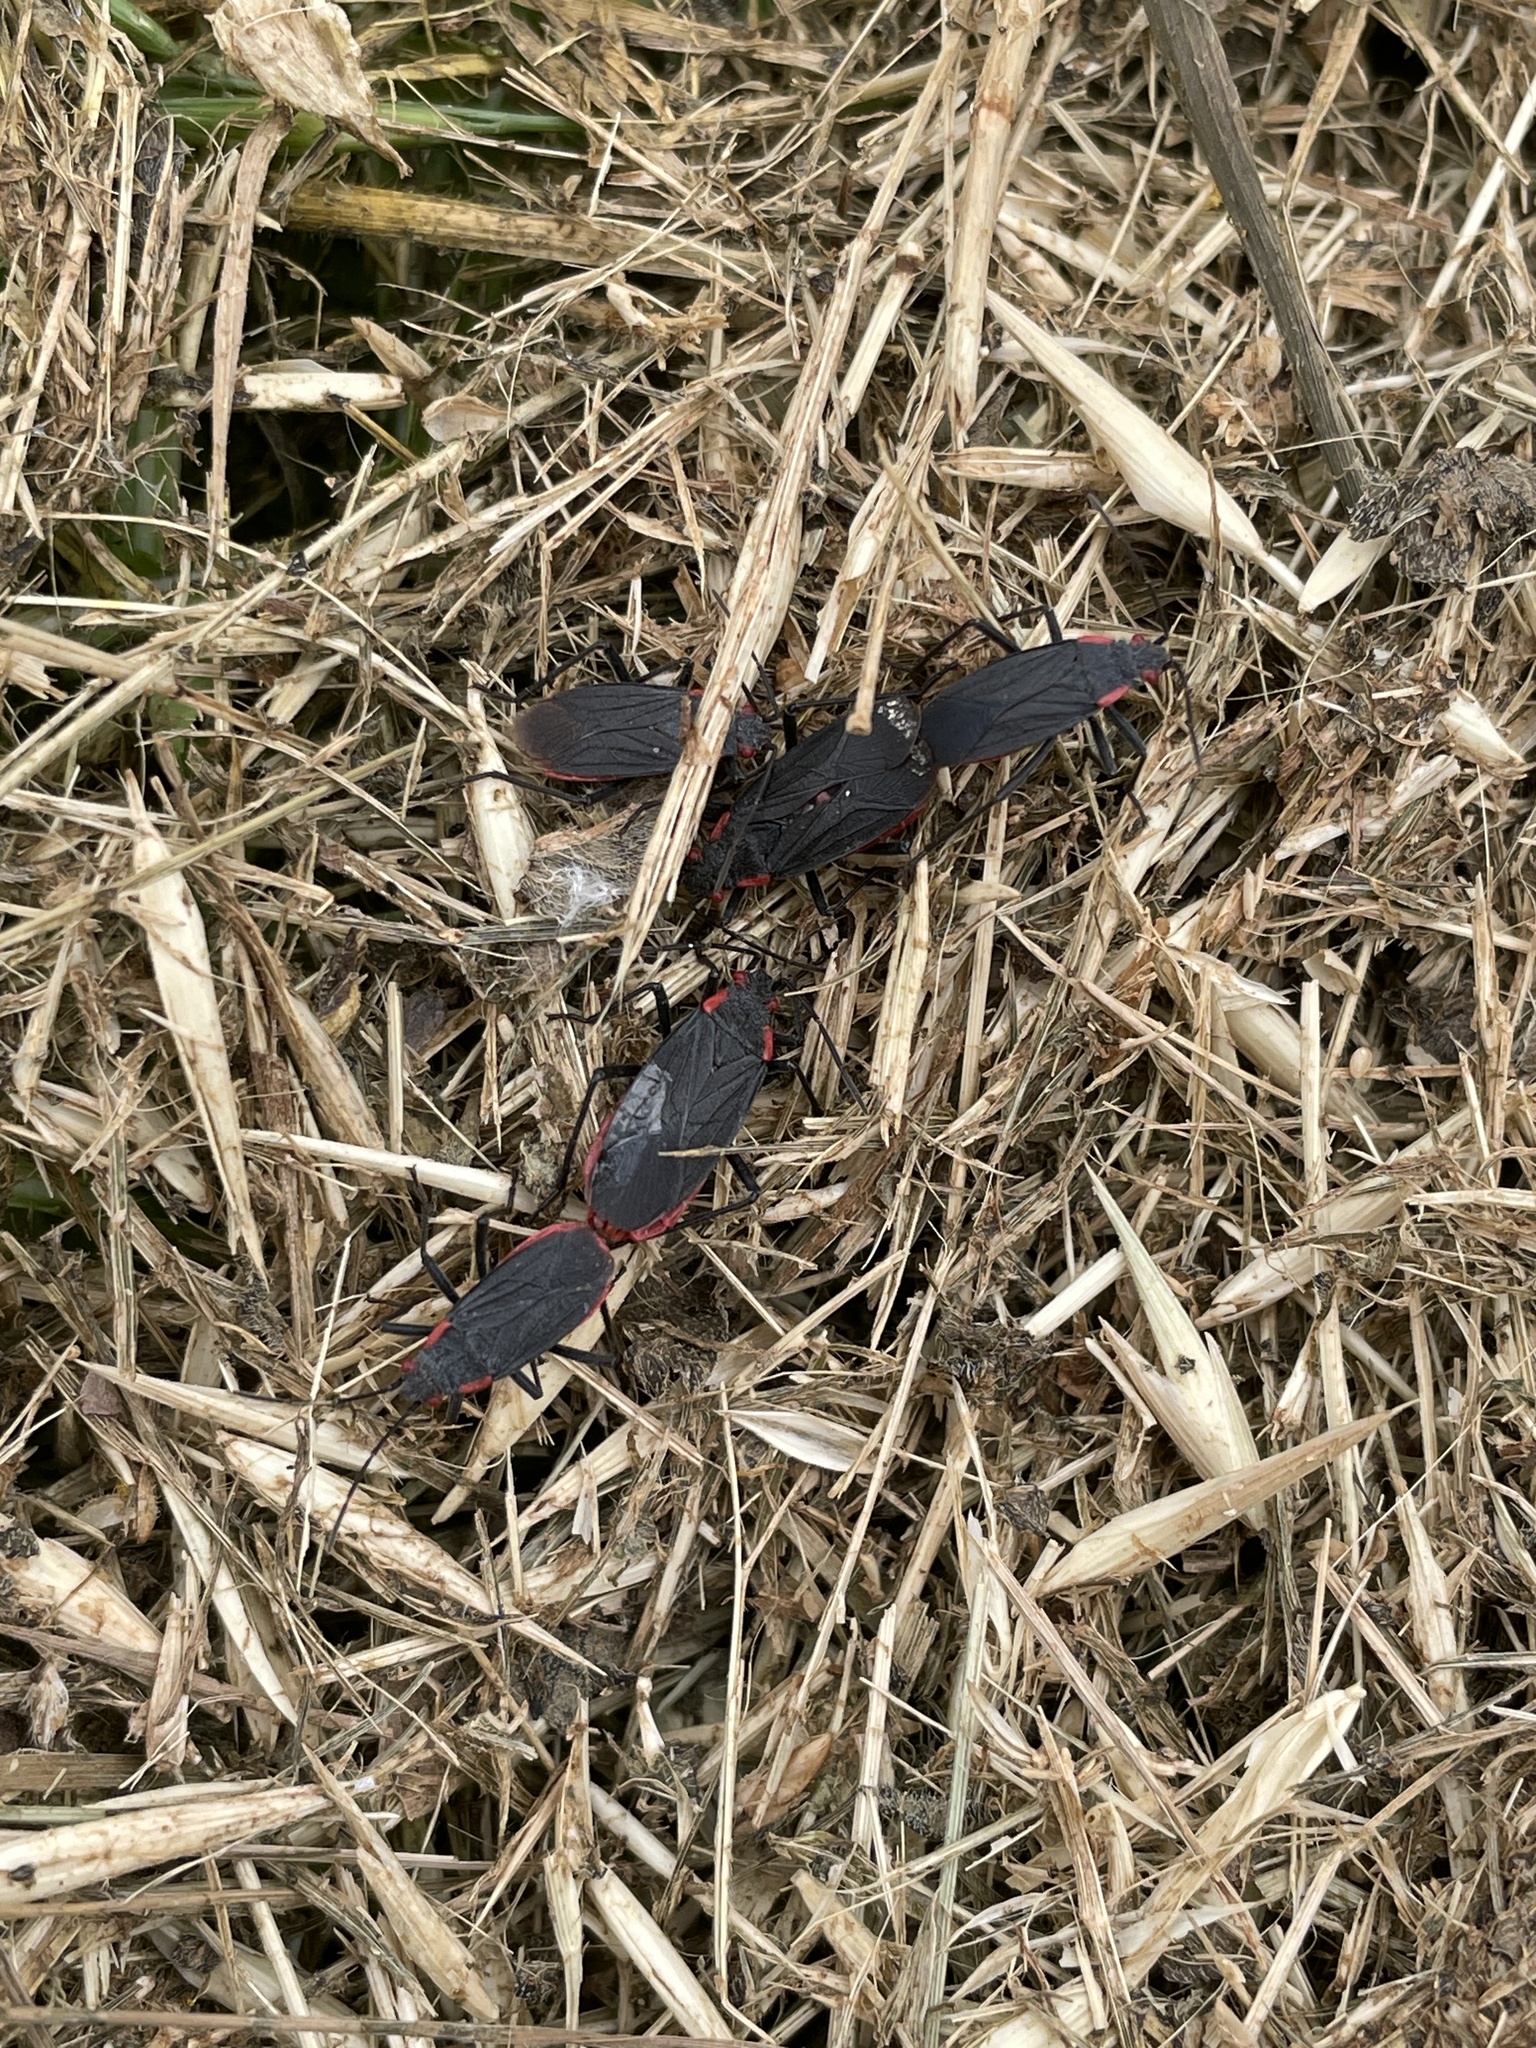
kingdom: Animalia
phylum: Arthropoda
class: Insecta
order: Hemiptera
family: Rhopalidae
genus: Jadera
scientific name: Jadera haematoloma
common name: Red-shouldered bug
